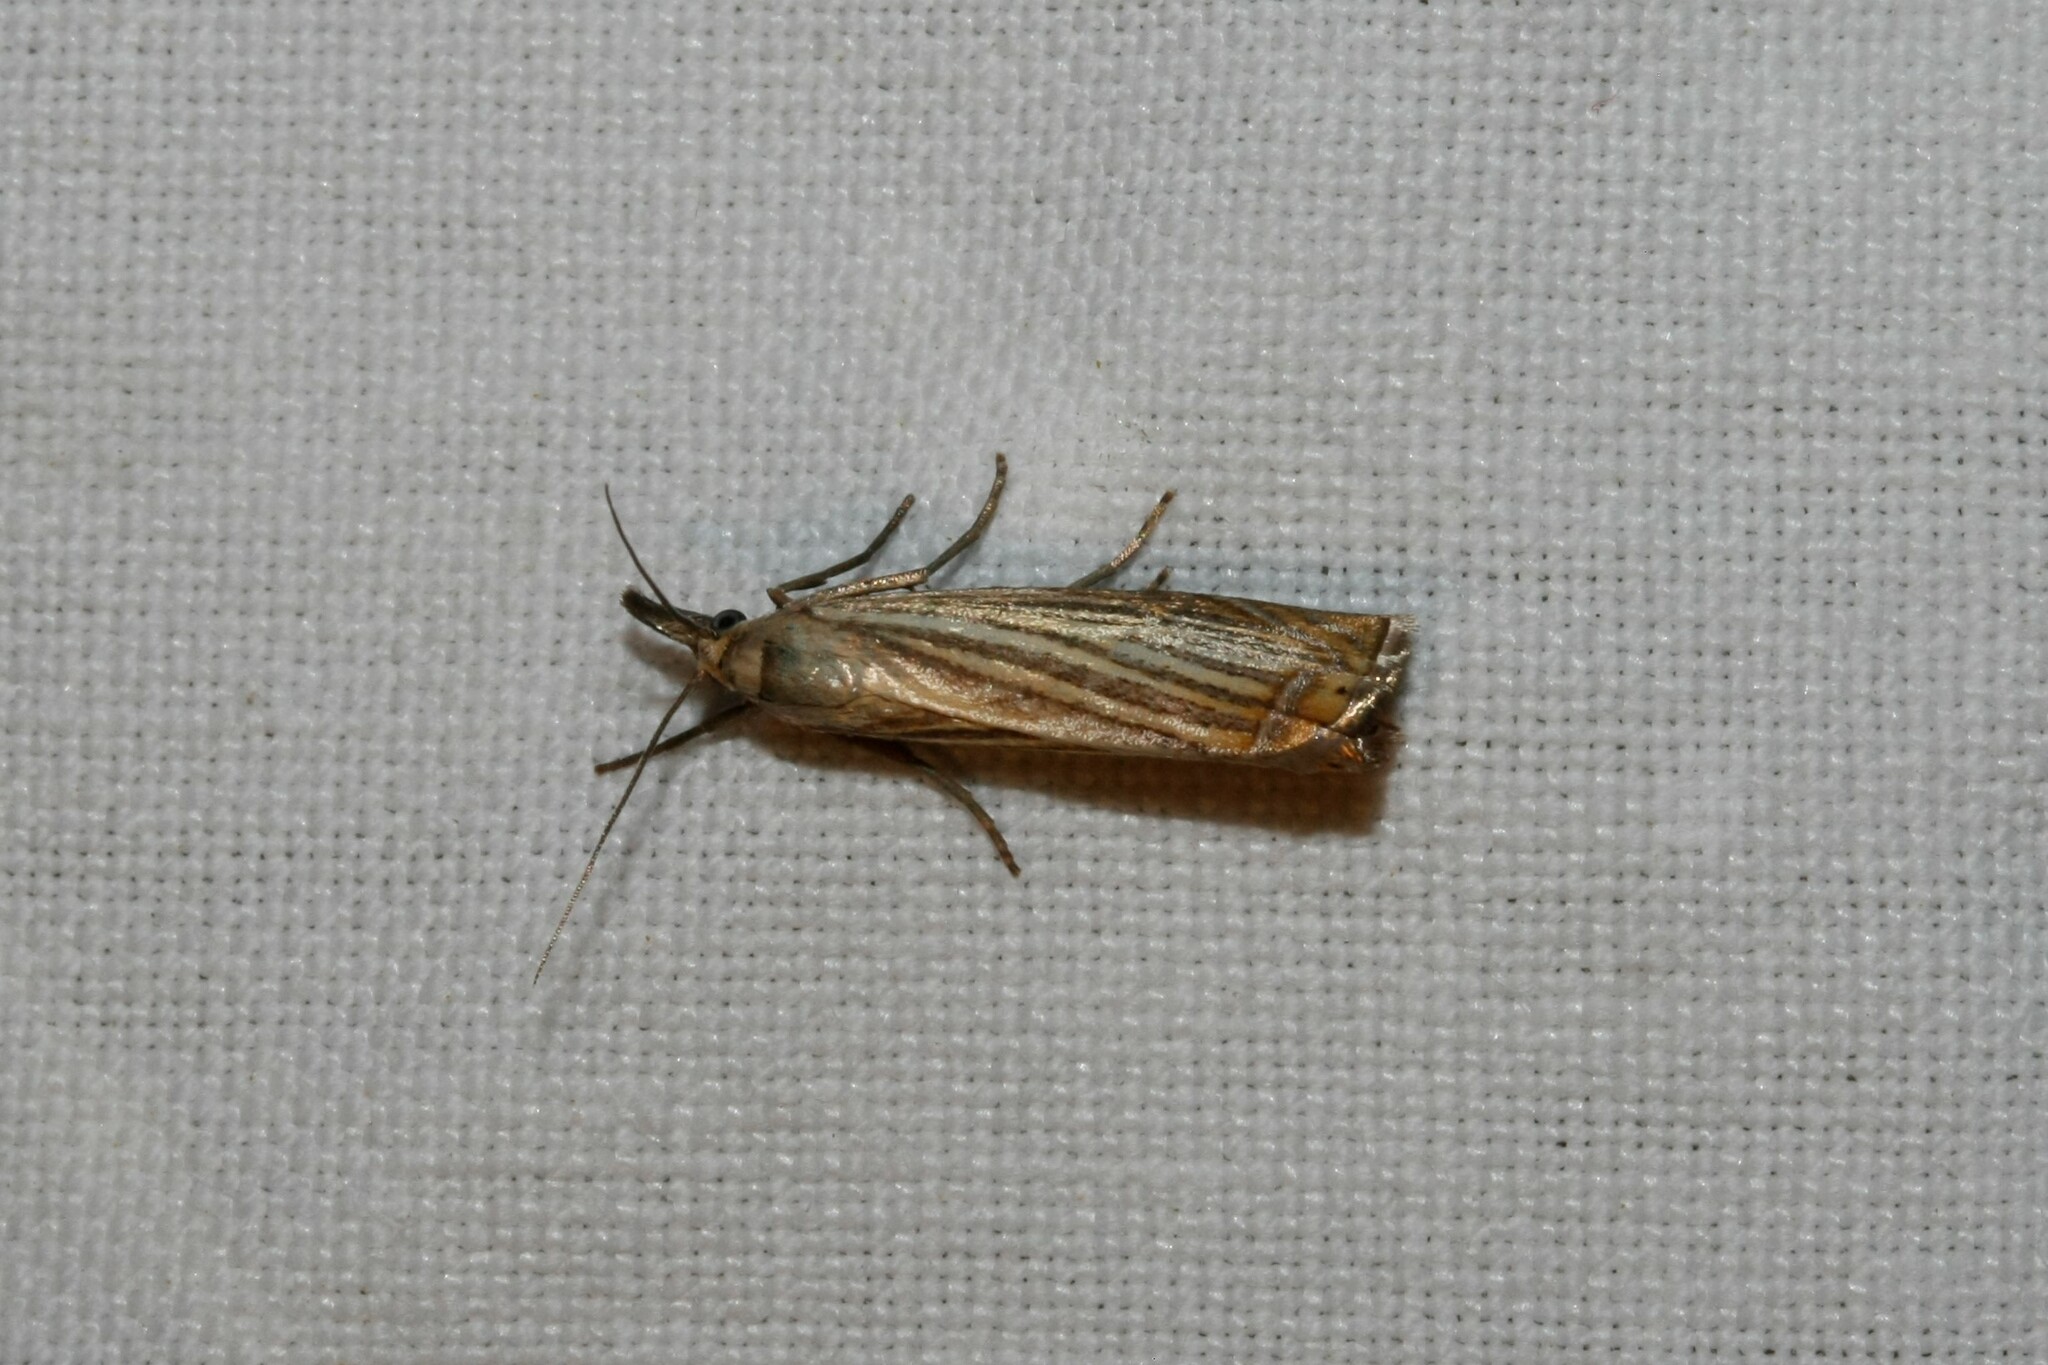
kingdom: Animalia
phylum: Arthropoda
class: Insecta
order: Lepidoptera
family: Crambidae
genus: Chrysoteuchia
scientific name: Chrysoteuchia culmella
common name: Garden grass-veneer
